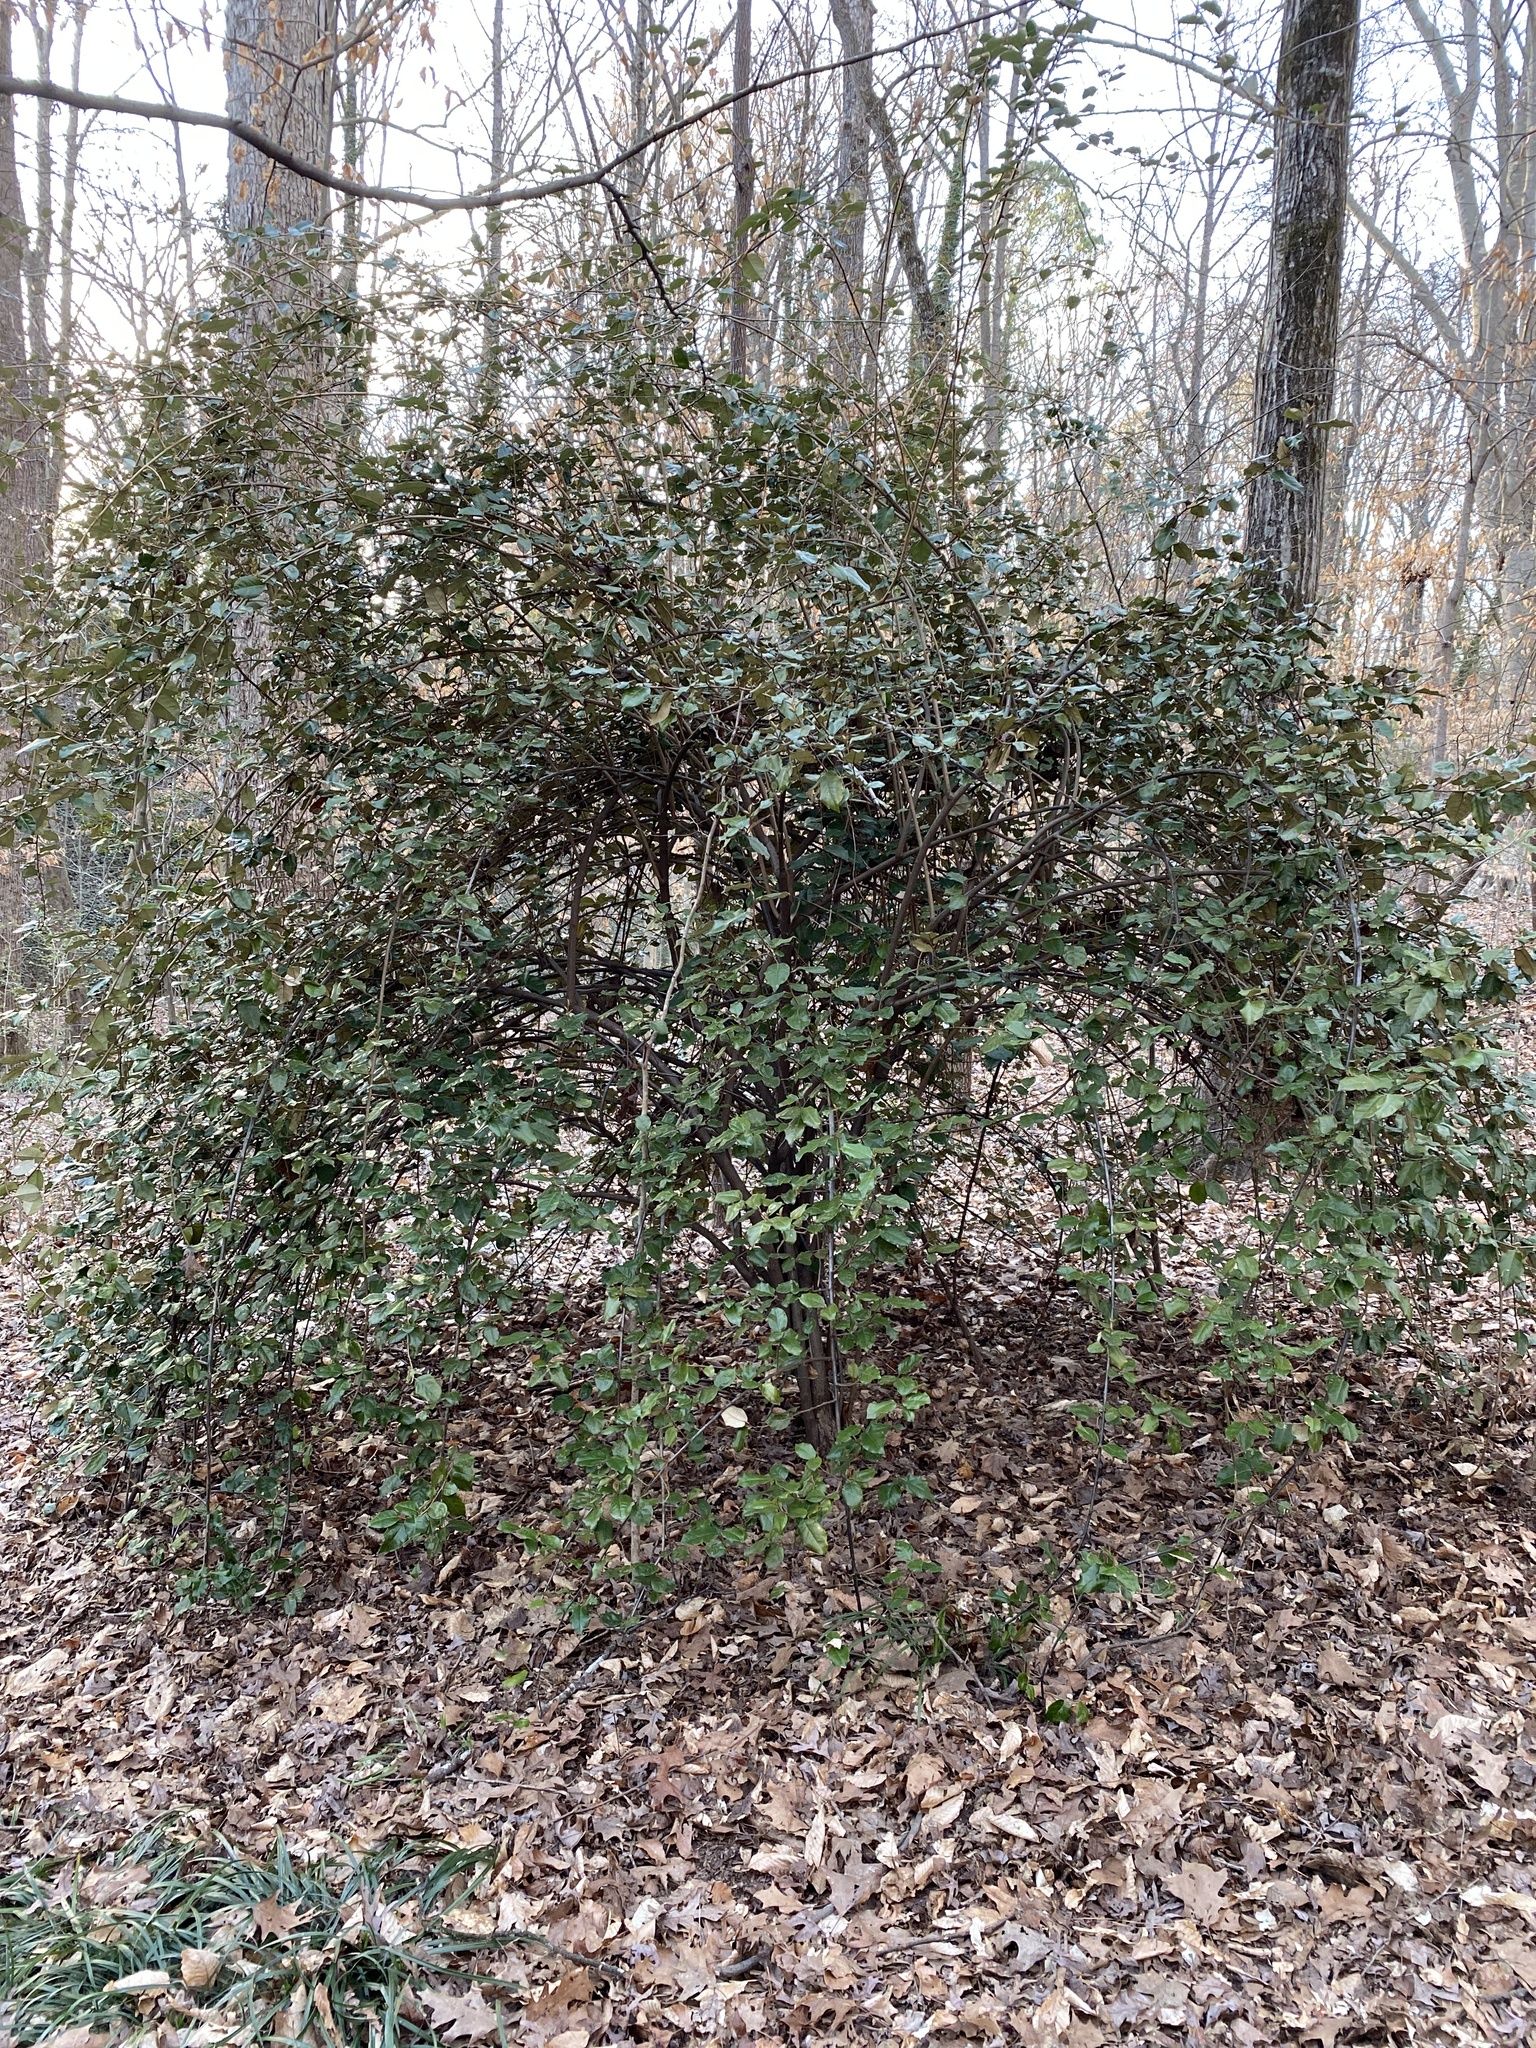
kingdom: Plantae
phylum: Tracheophyta
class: Magnoliopsida
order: Rosales
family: Elaeagnaceae
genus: Elaeagnus
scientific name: Elaeagnus pungens
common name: Spiny oleaster
